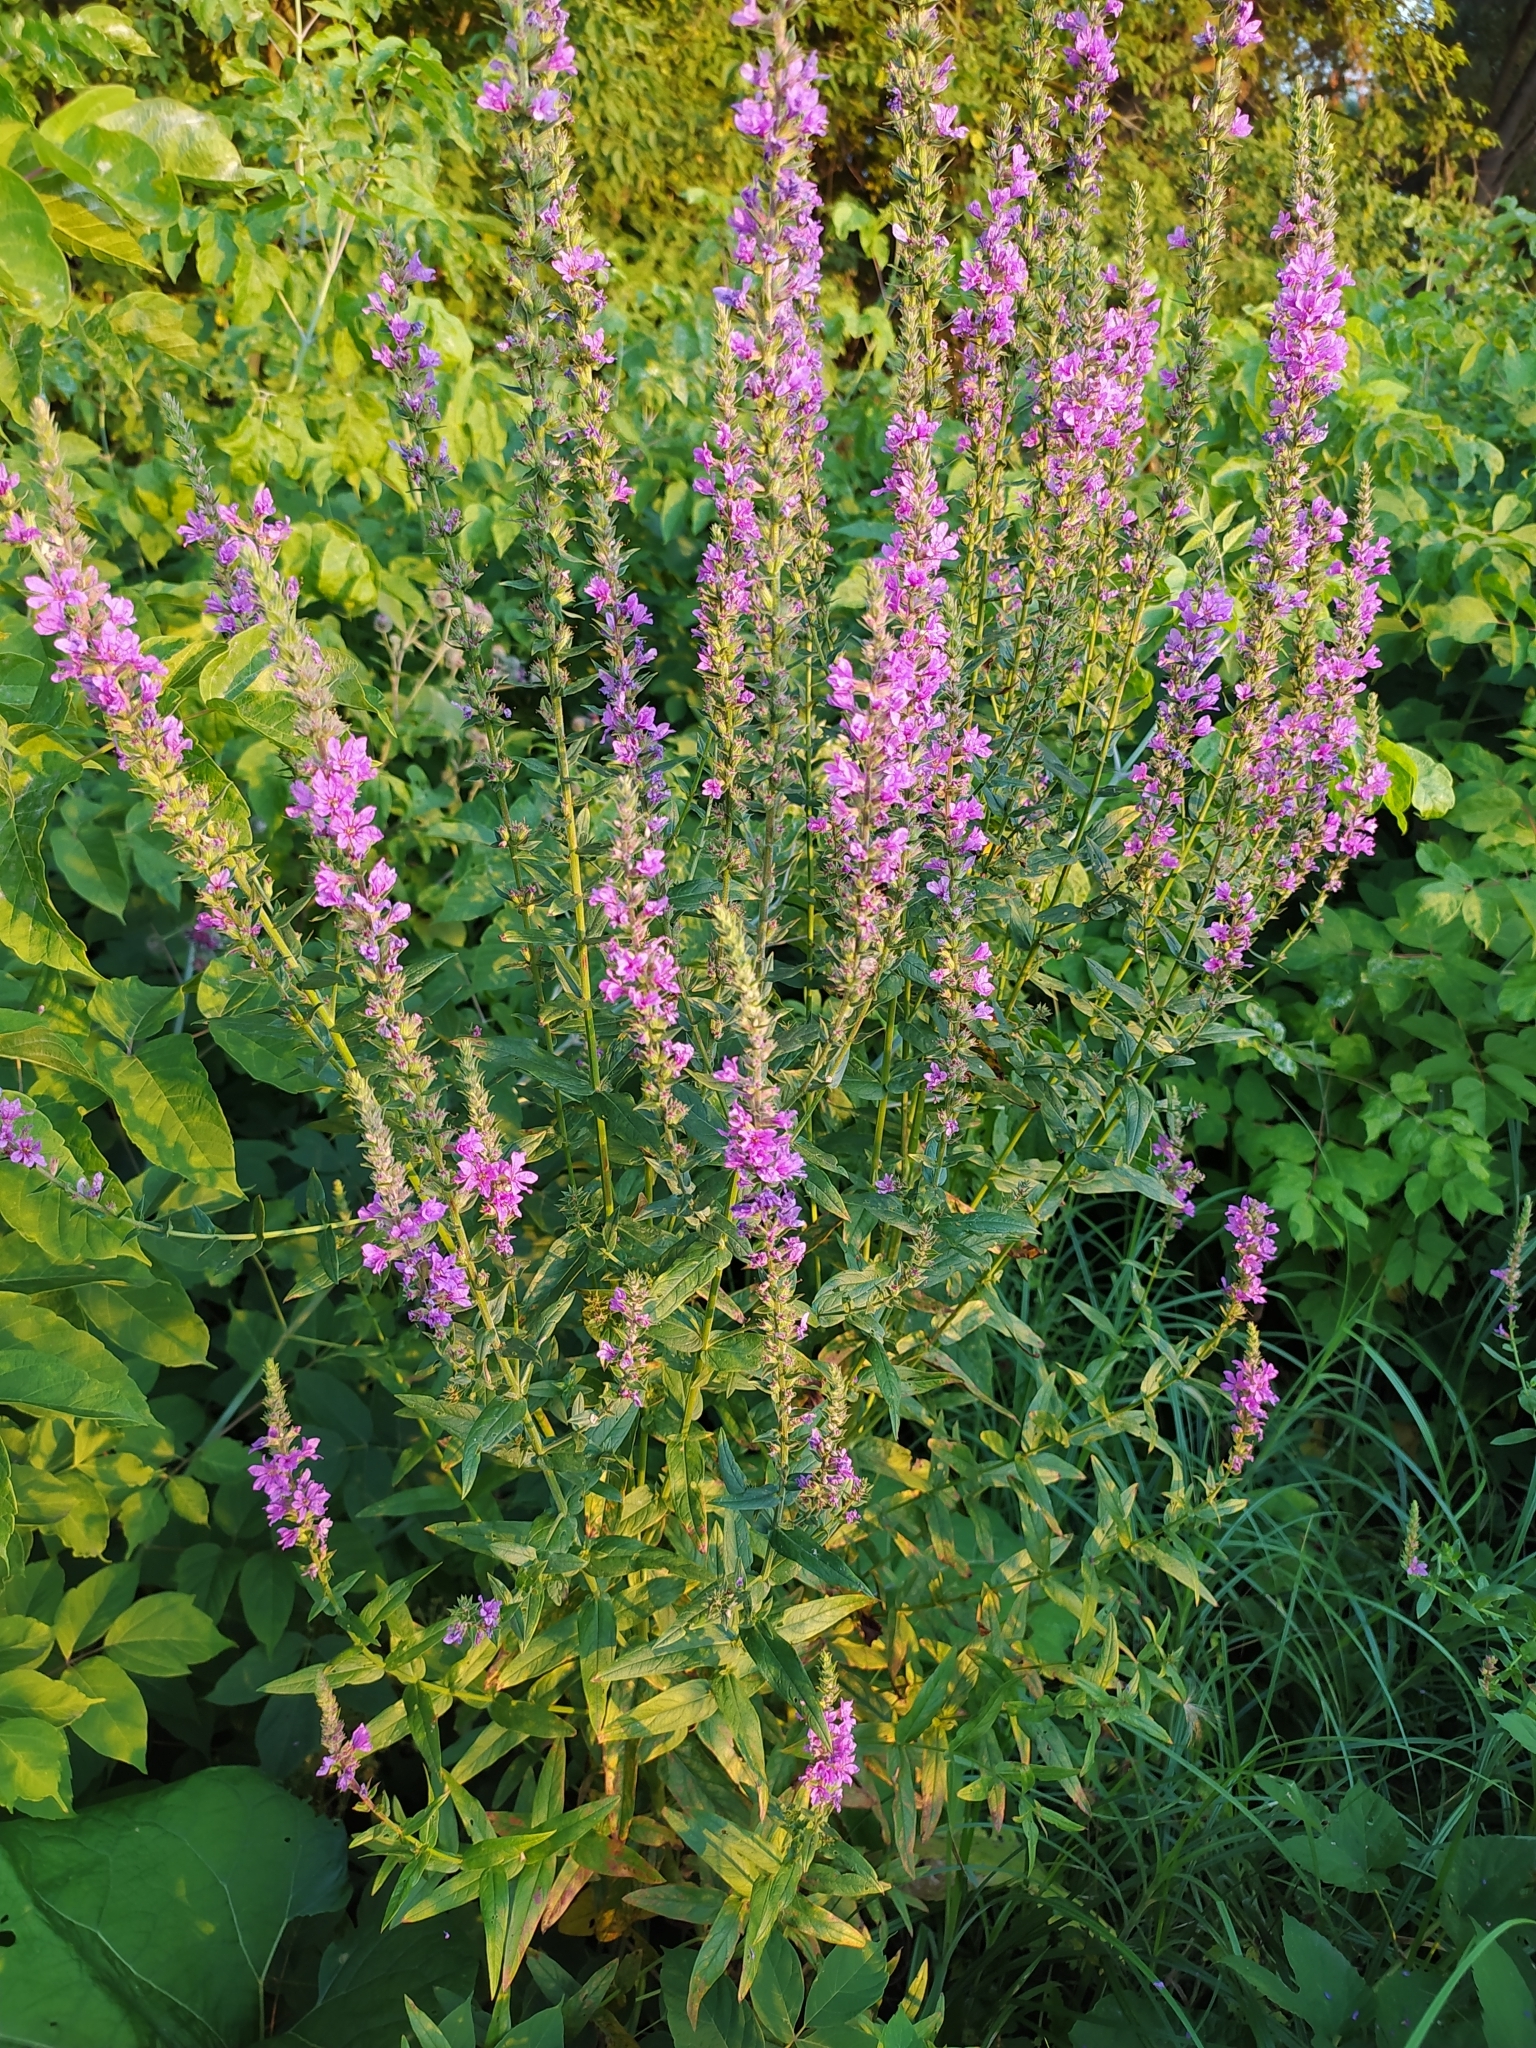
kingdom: Plantae
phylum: Tracheophyta
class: Magnoliopsida
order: Myrtales
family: Lythraceae
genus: Lythrum
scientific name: Lythrum salicaria
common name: Purple loosestrife
